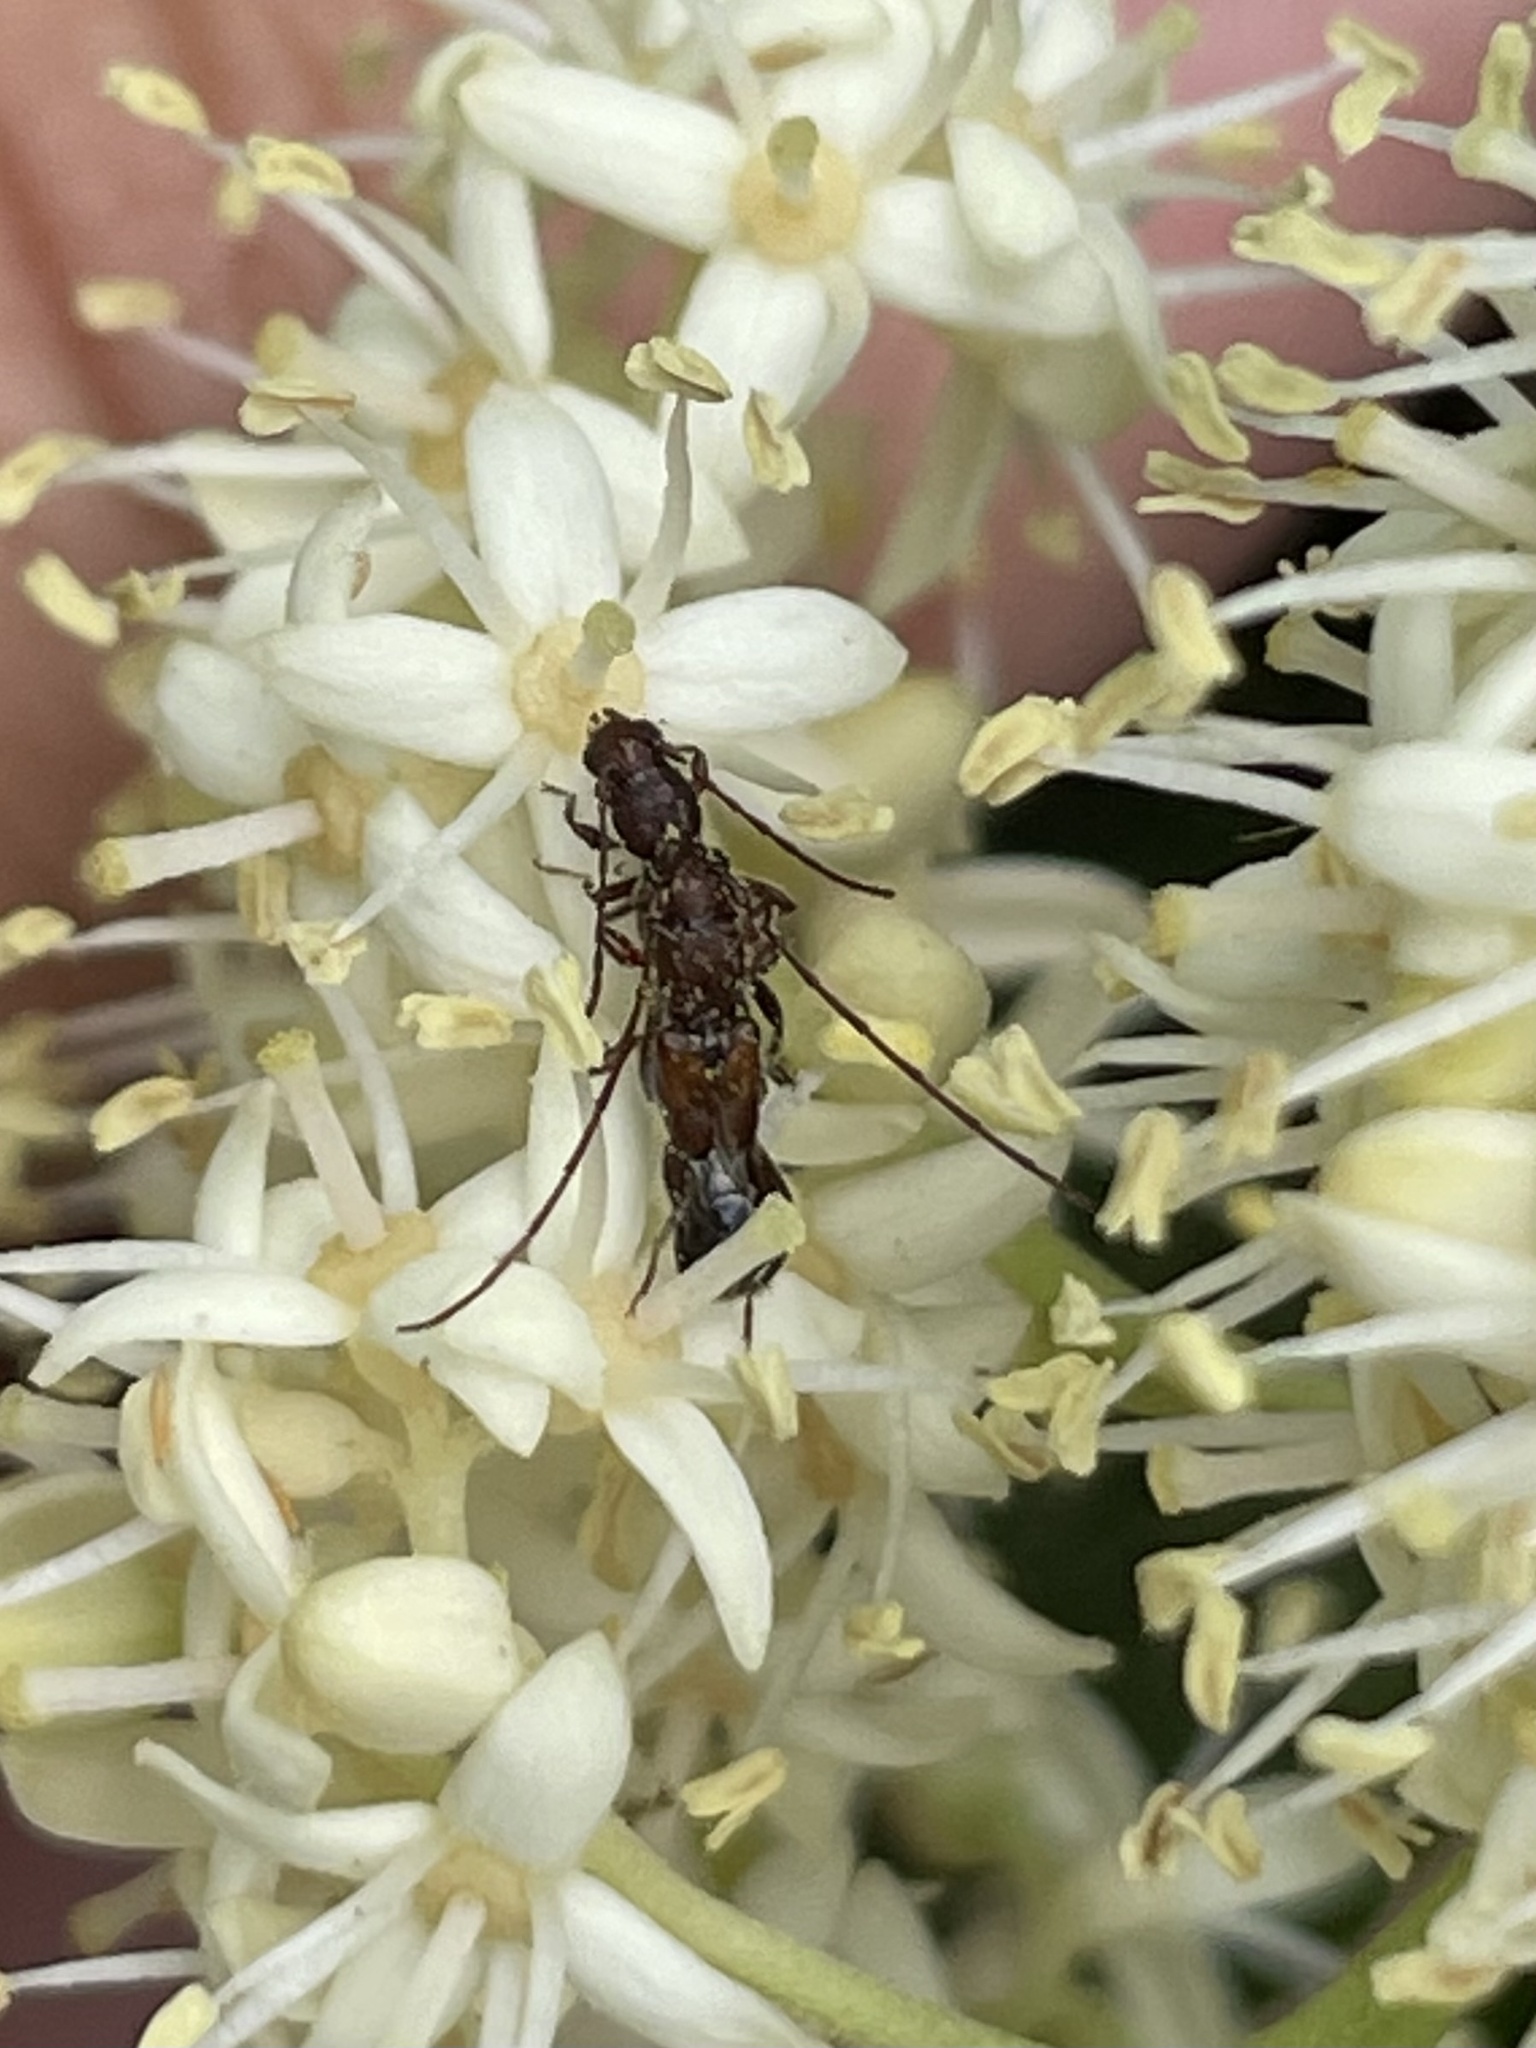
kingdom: Animalia
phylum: Arthropoda
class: Insecta
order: Coleoptera
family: Cerambycidae
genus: Molorchus
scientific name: Molorchus bimaculatus
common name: Bimaculate longhorn beetle
